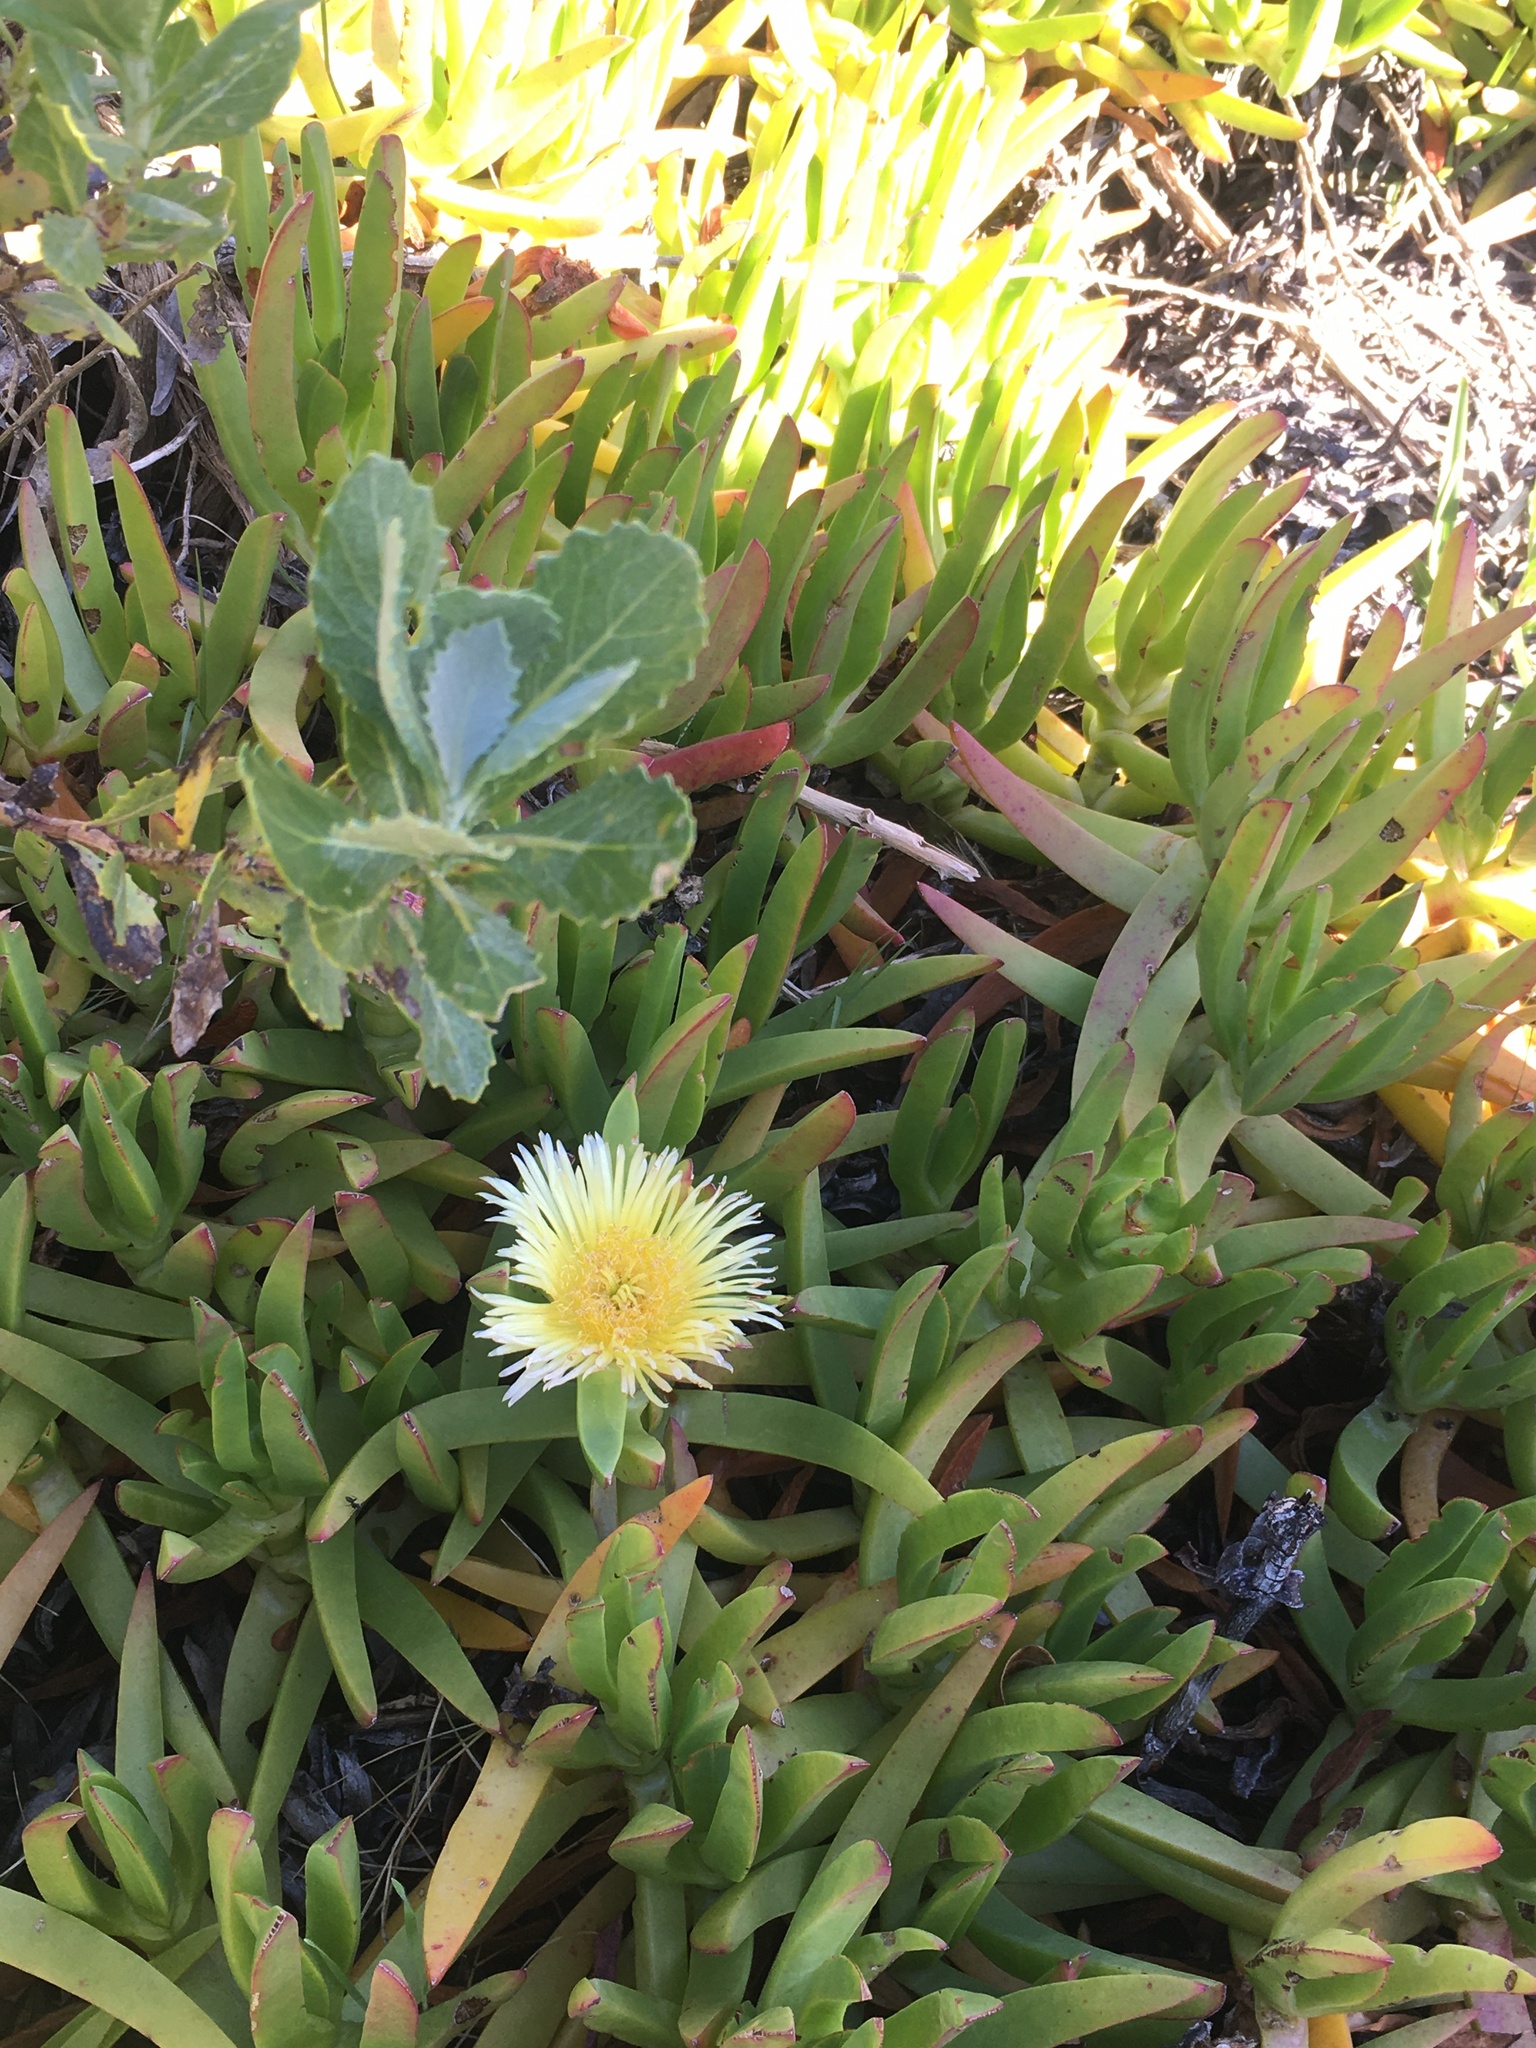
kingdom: Plantae
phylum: Tracheophyta
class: Magnoliopsida
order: Caryophyllales
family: Aizoaceae
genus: Carpobrotus
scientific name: Carpobrotus edulis
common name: Hottentot-fig
